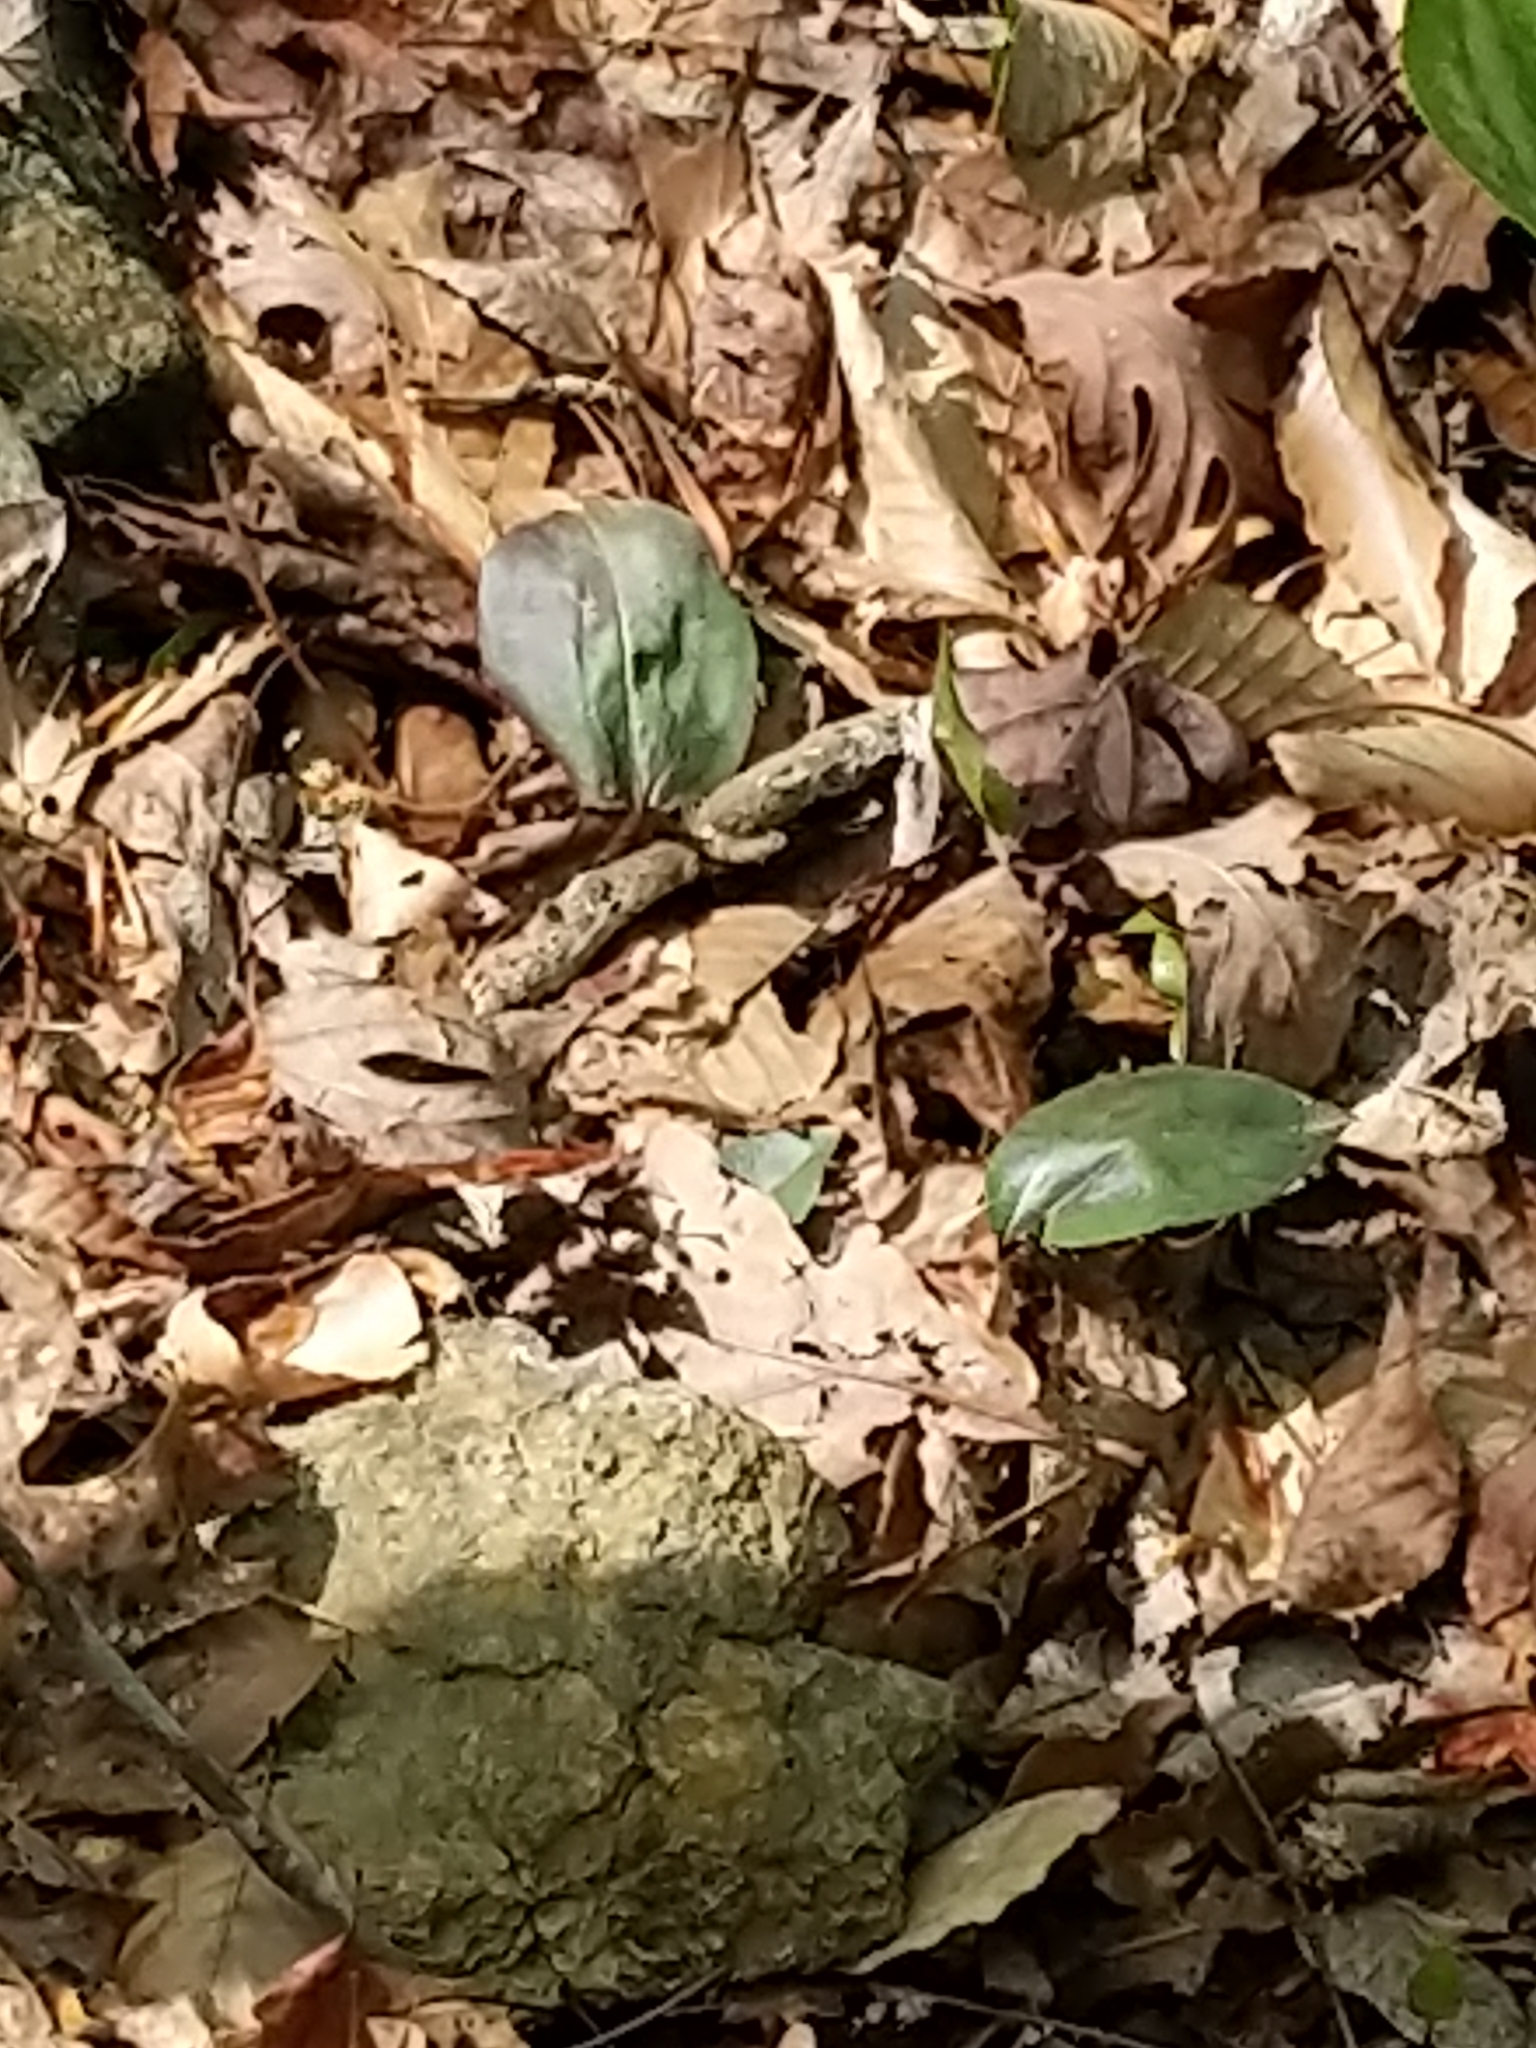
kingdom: Plantae
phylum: Tracheophyta
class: Liliopsida
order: Asparagales
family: Orchidaceae
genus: Tipularia
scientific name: Tipularia discolor
